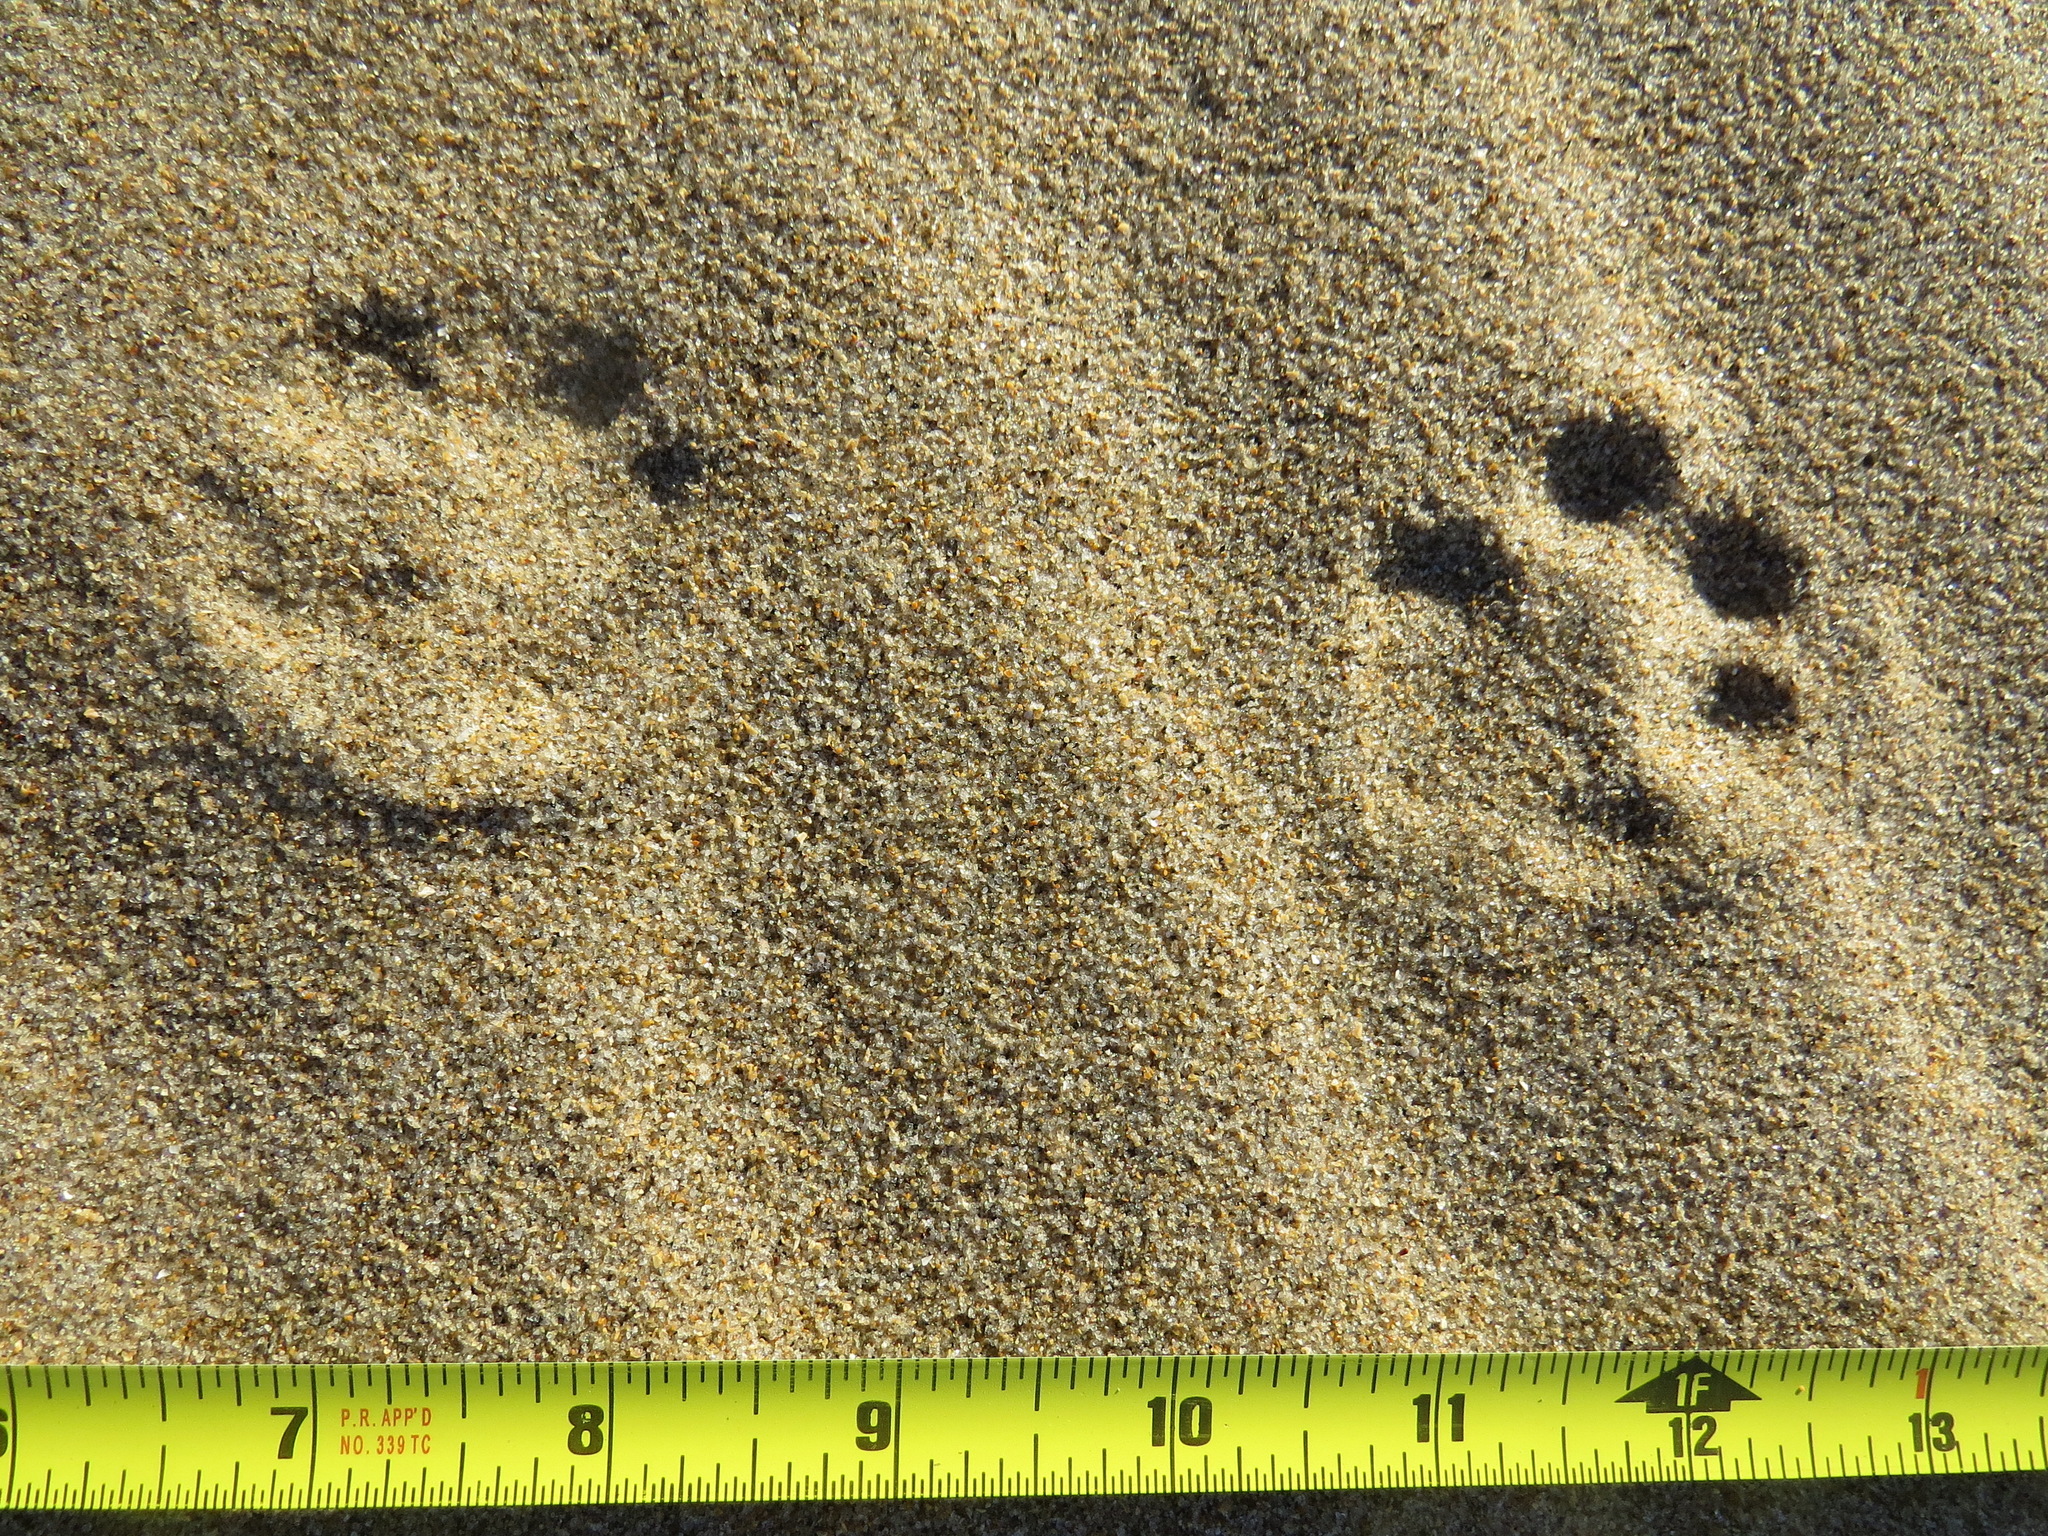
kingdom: Animalia
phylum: Chordata
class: Mammalia
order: Carnivora
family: Felidae
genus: Lynx
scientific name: Lynx rufus
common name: Bobcat
